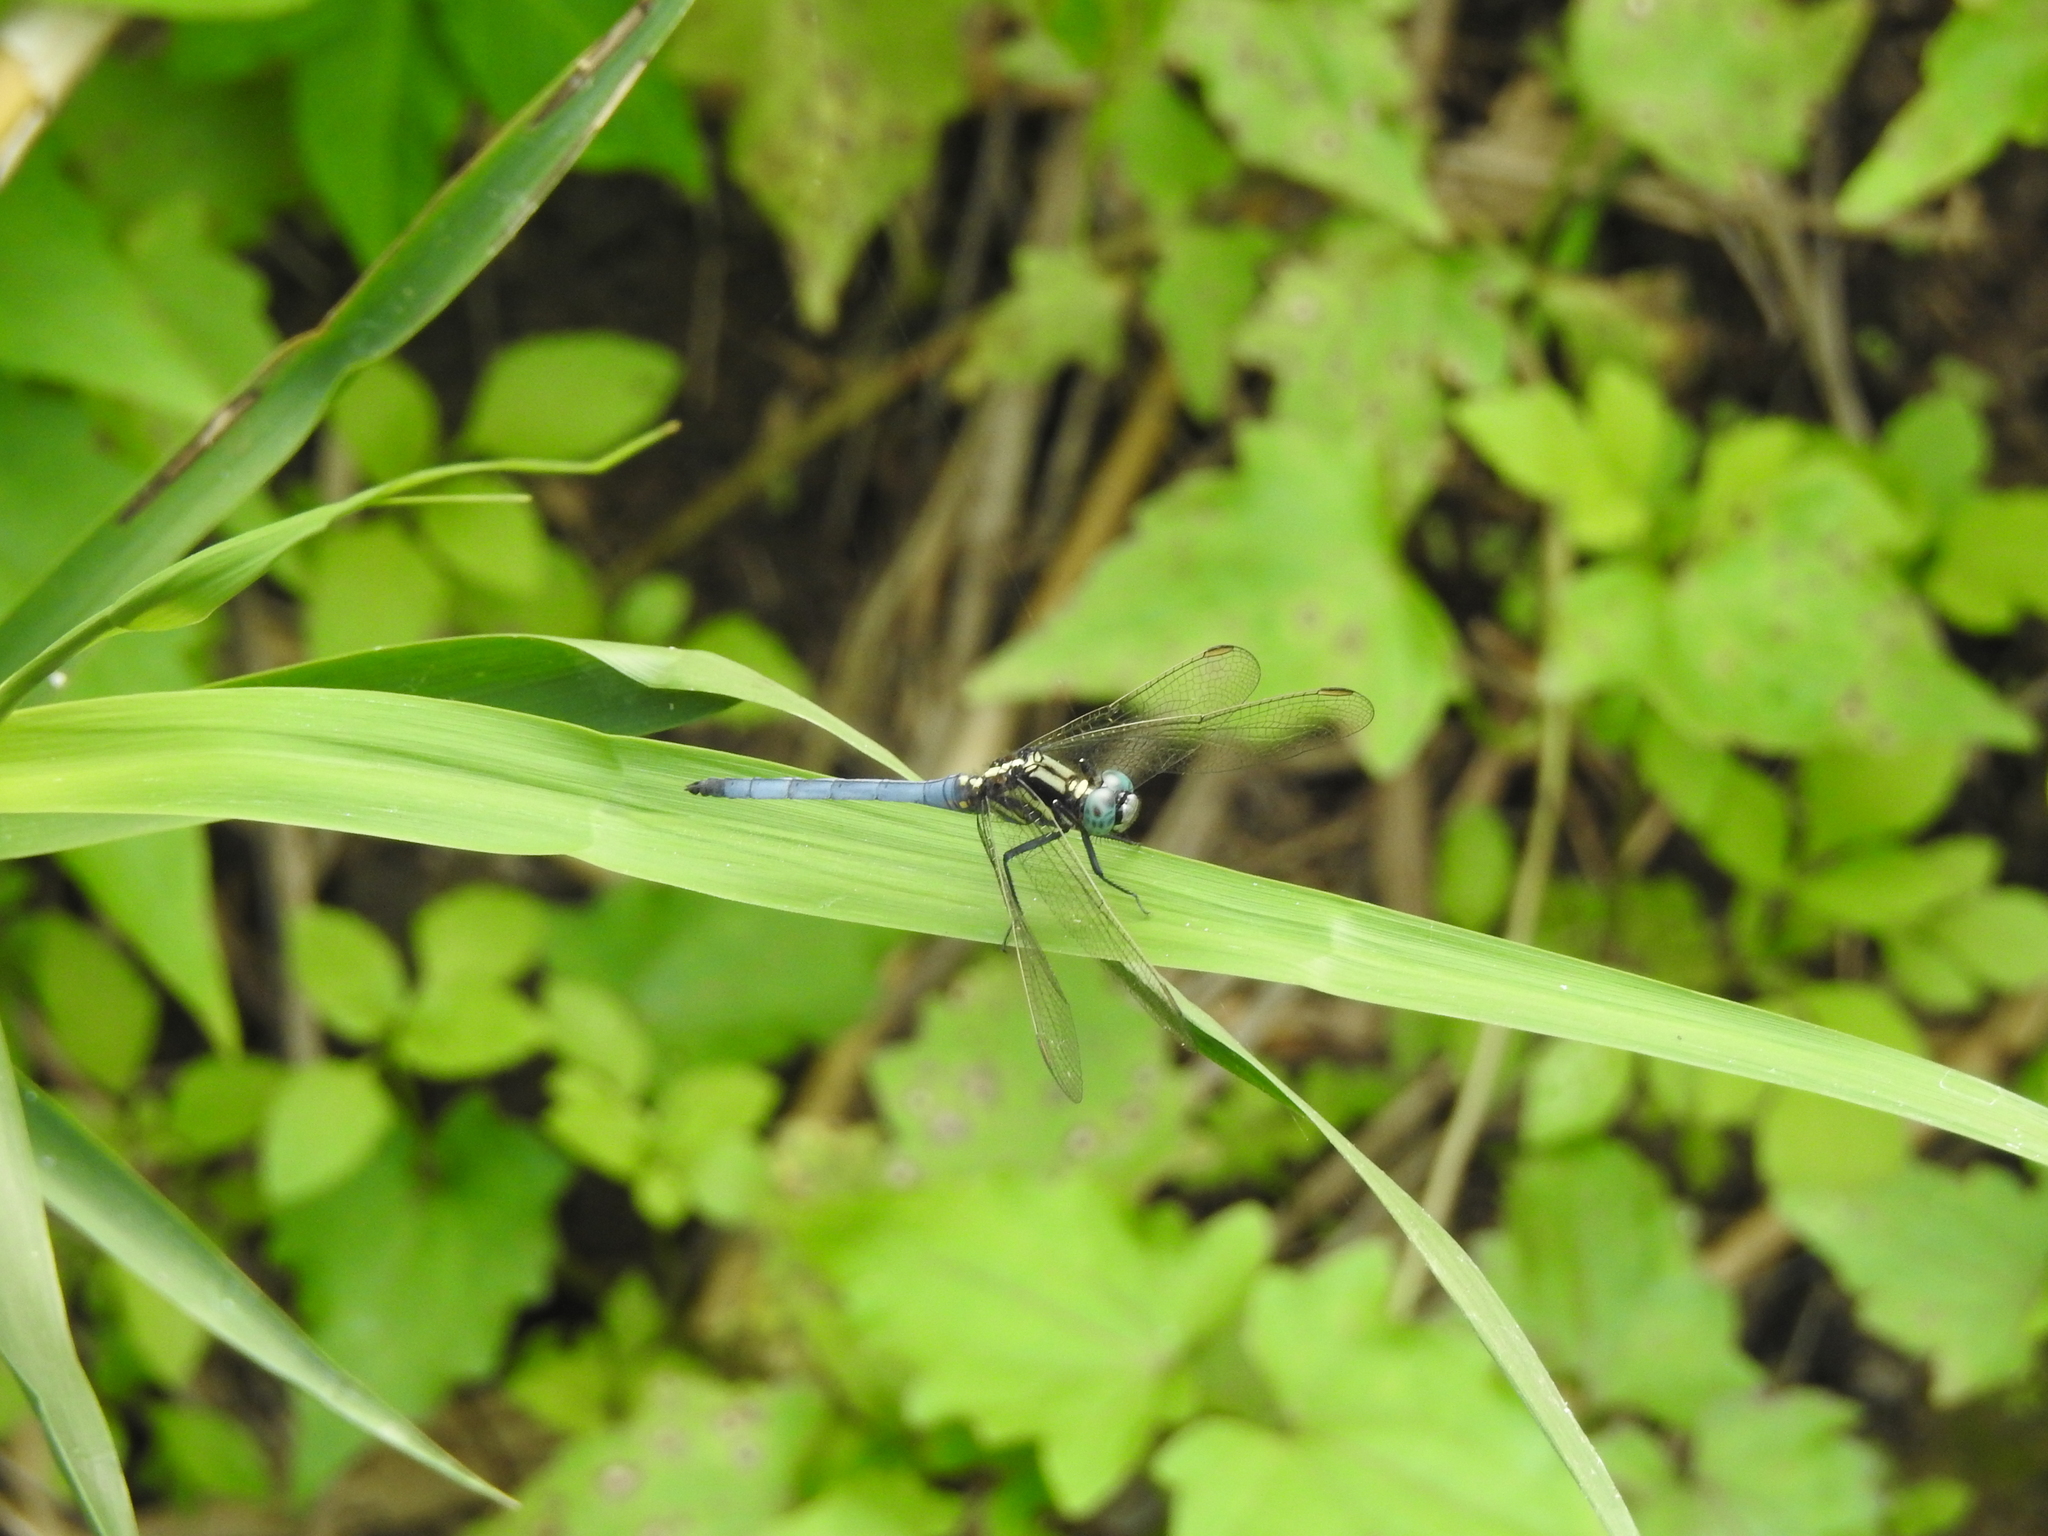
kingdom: Animalia
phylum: Arthropoda
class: Insecta
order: Odonata
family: Libellulidae
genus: Orthetrum
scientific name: Orthetrum luzonicum
